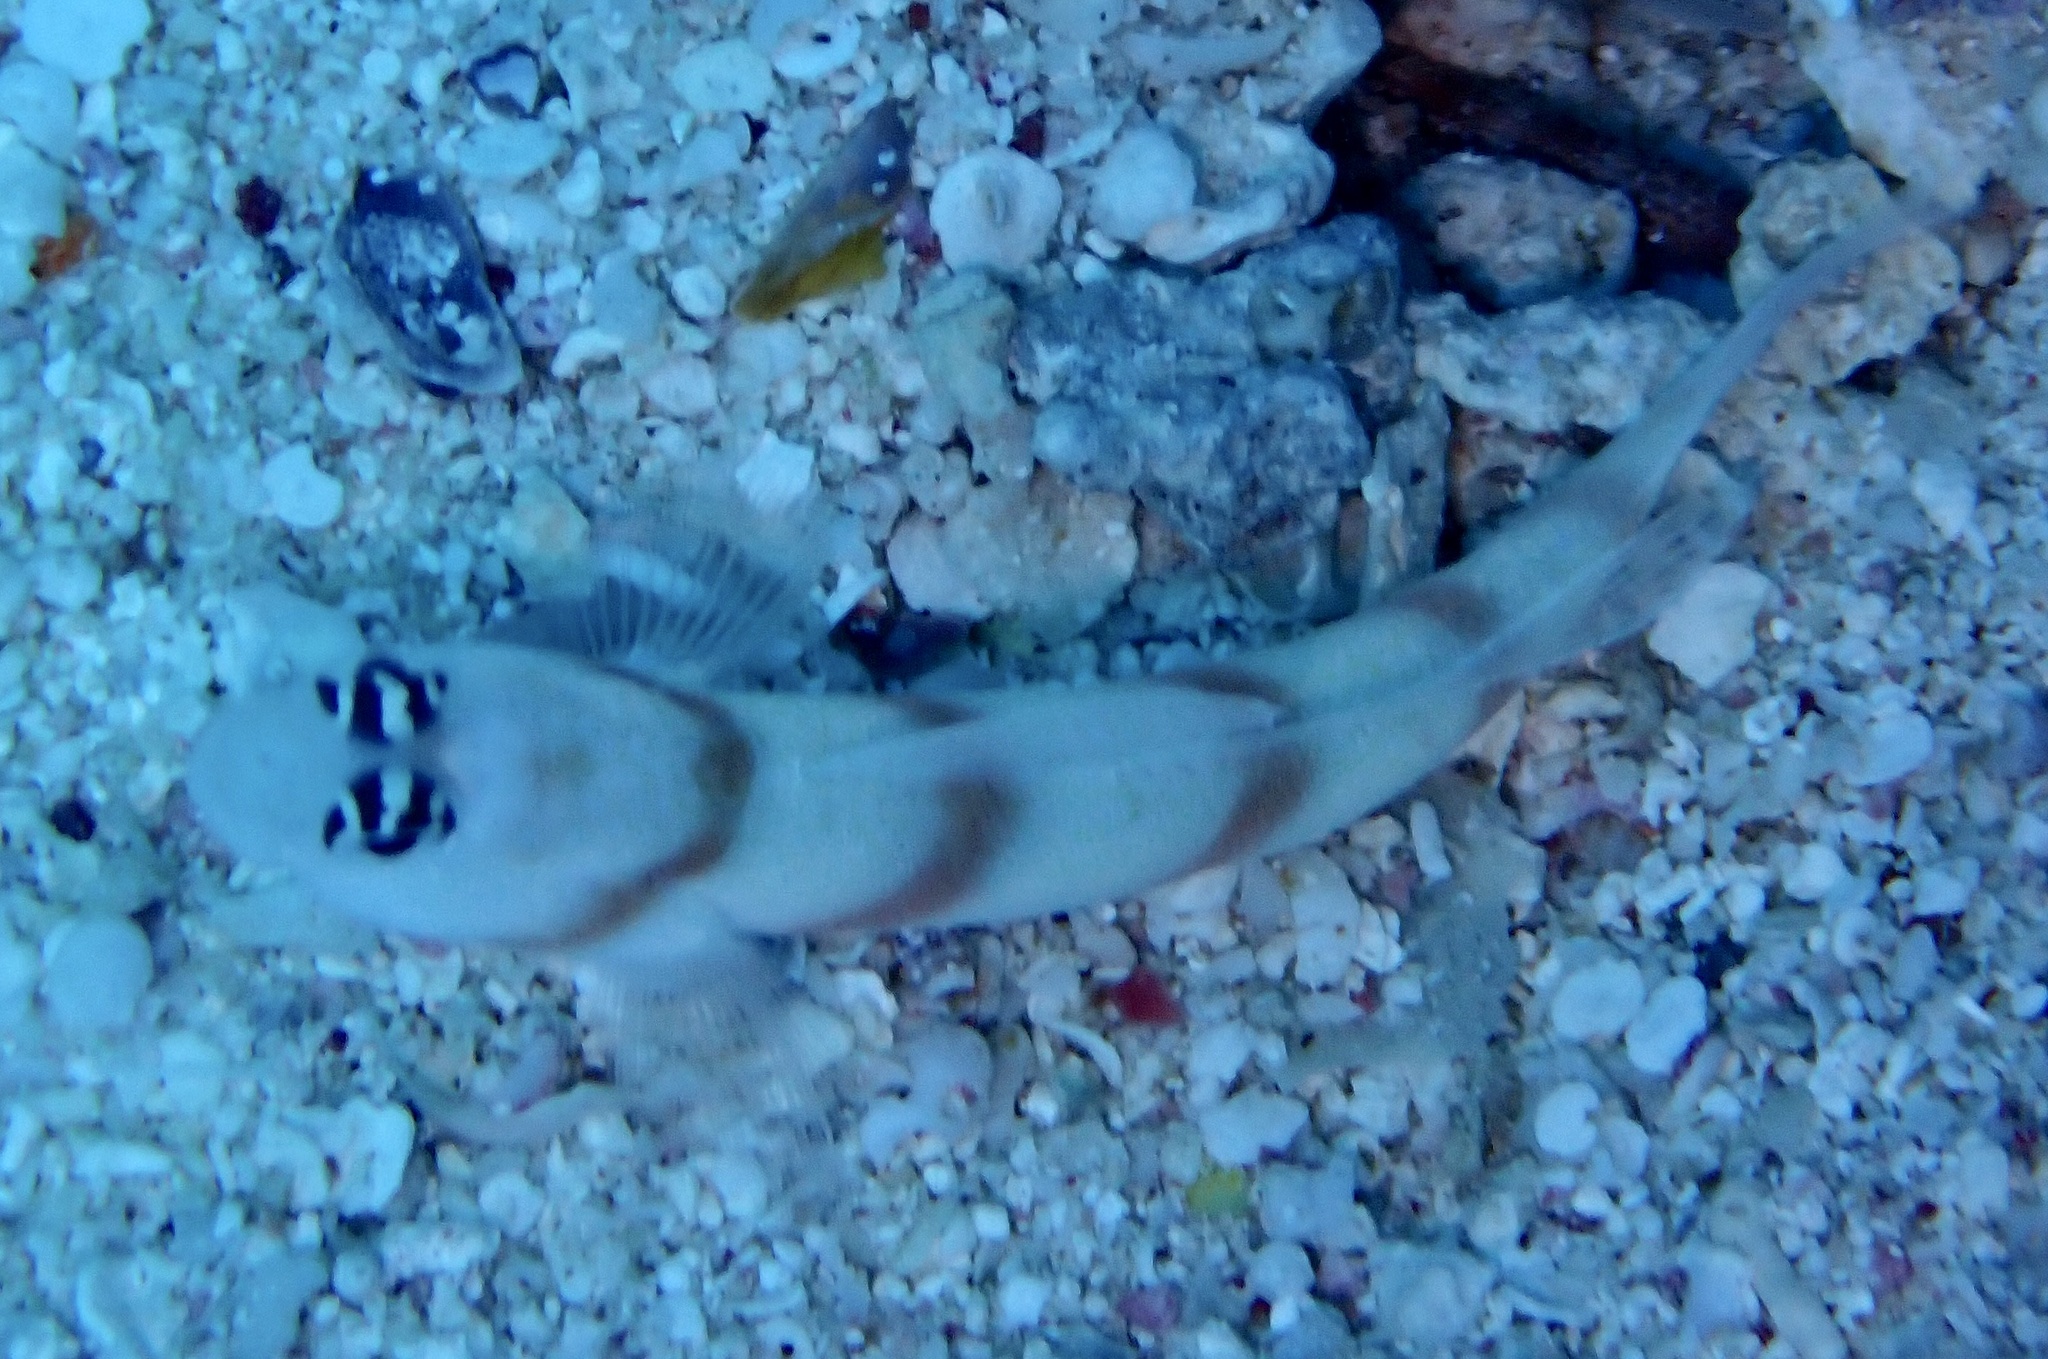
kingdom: Animalia
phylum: Chordata
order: Perciformes
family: Gobiidae
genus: Amblyeleotris
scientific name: Amblyeleotris steinitzi
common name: Steinitz' prawn-goby
